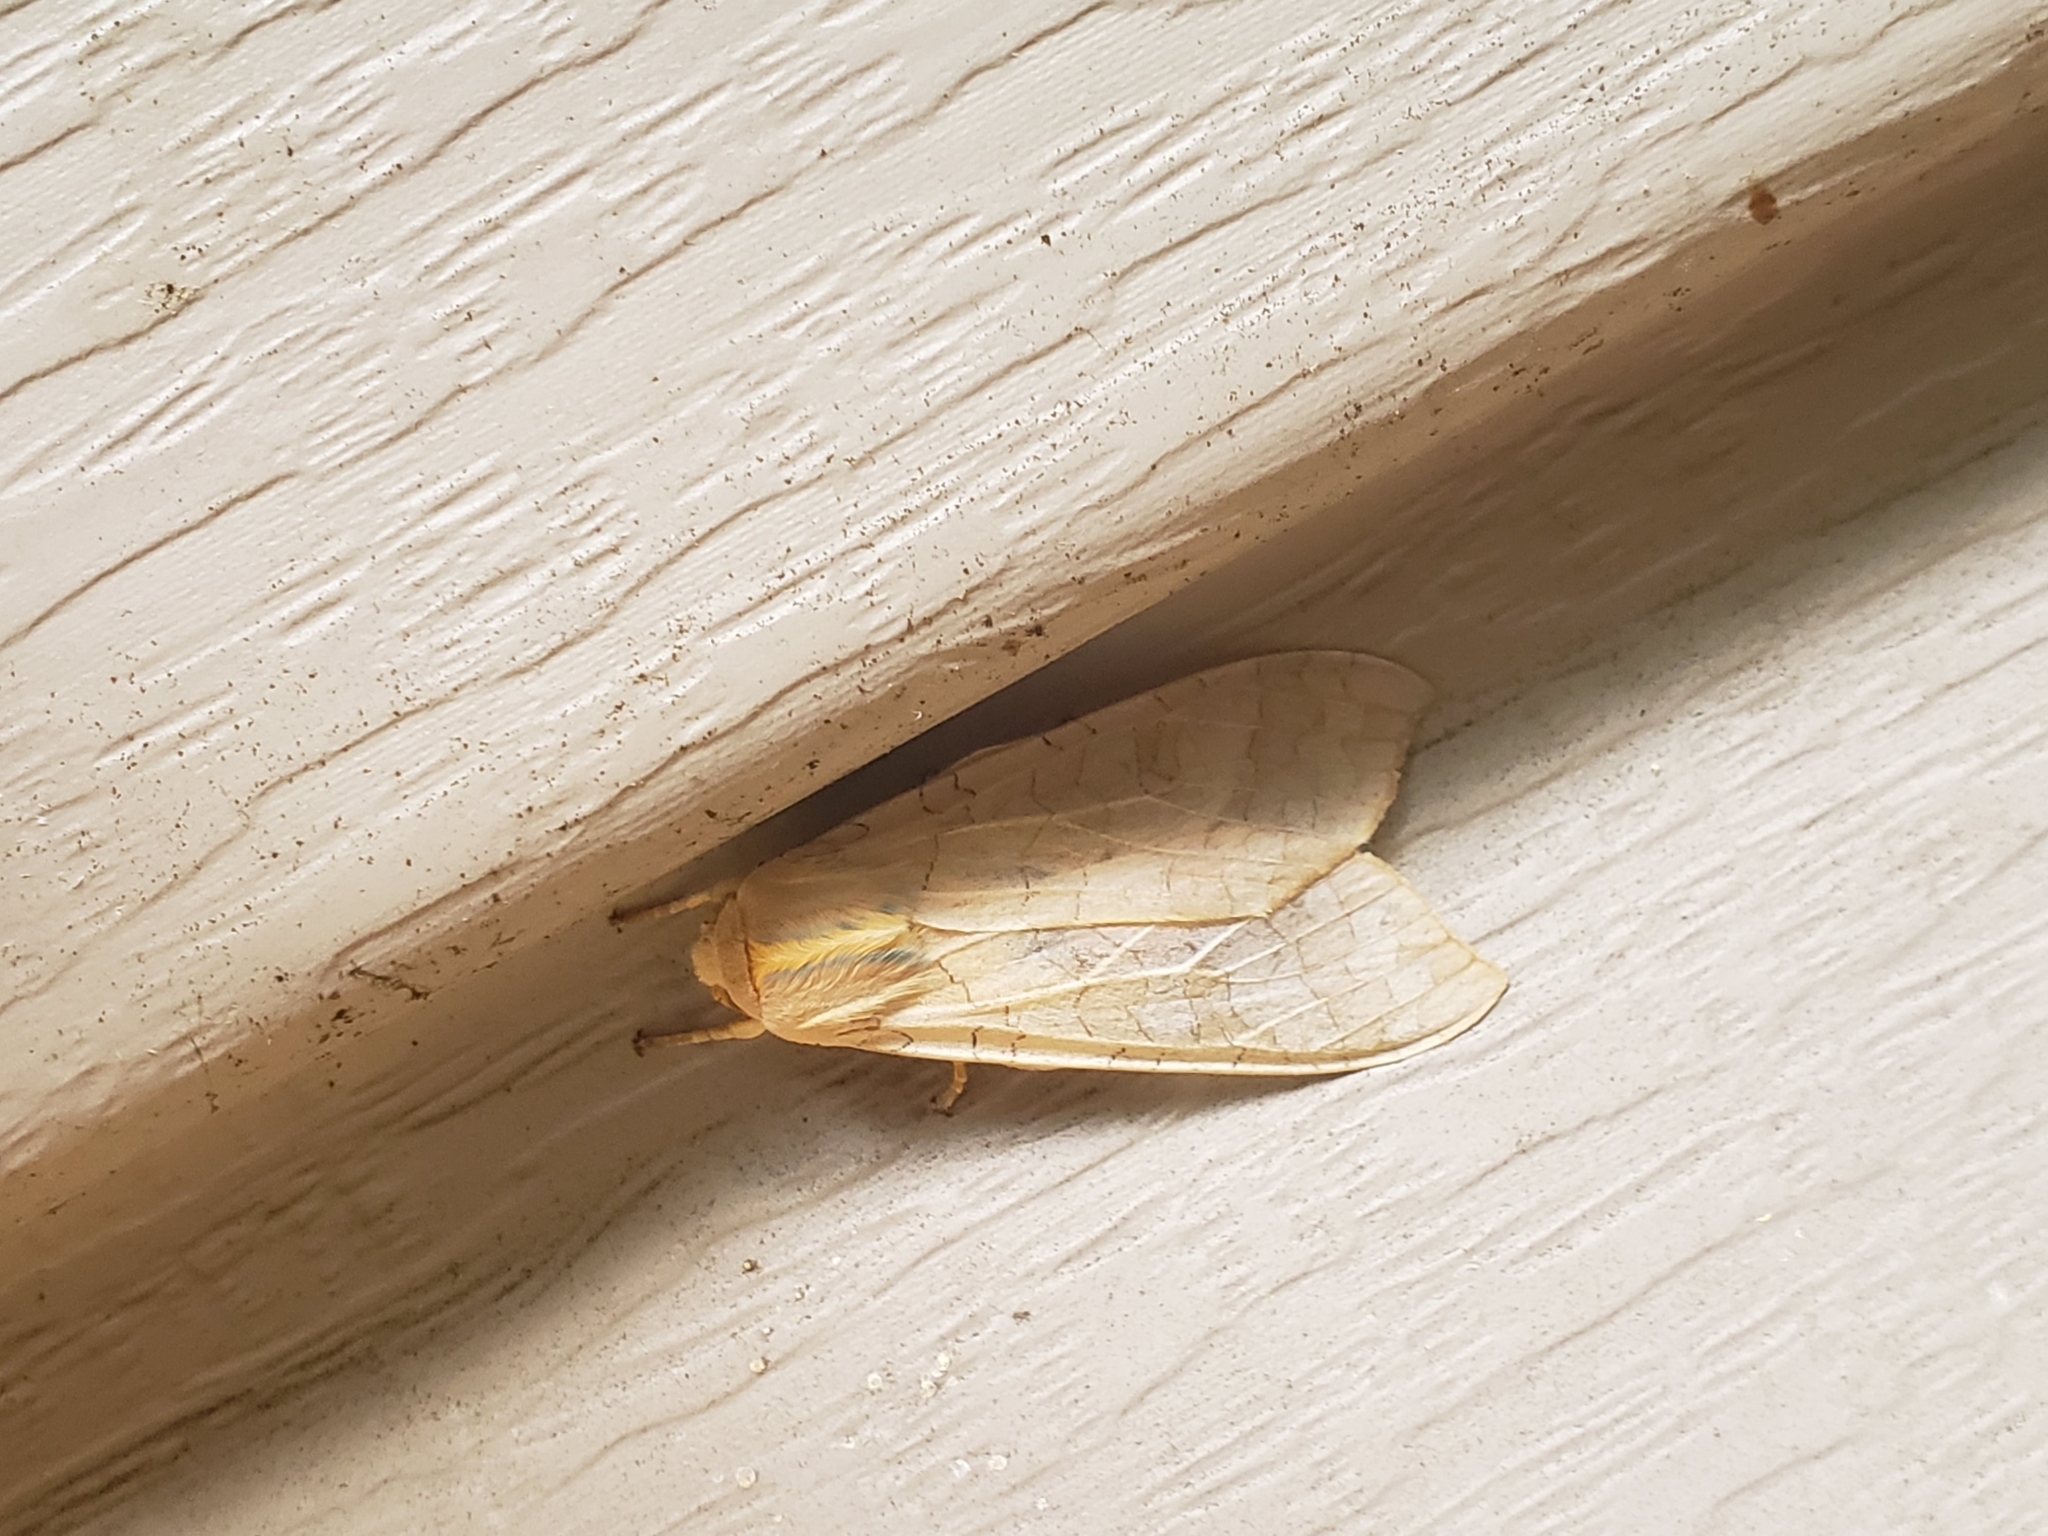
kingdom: Animalia
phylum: Arthropoda
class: Insecta
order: Lepidoptera
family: Erebidae
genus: Halysidota
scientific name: Halysidota
